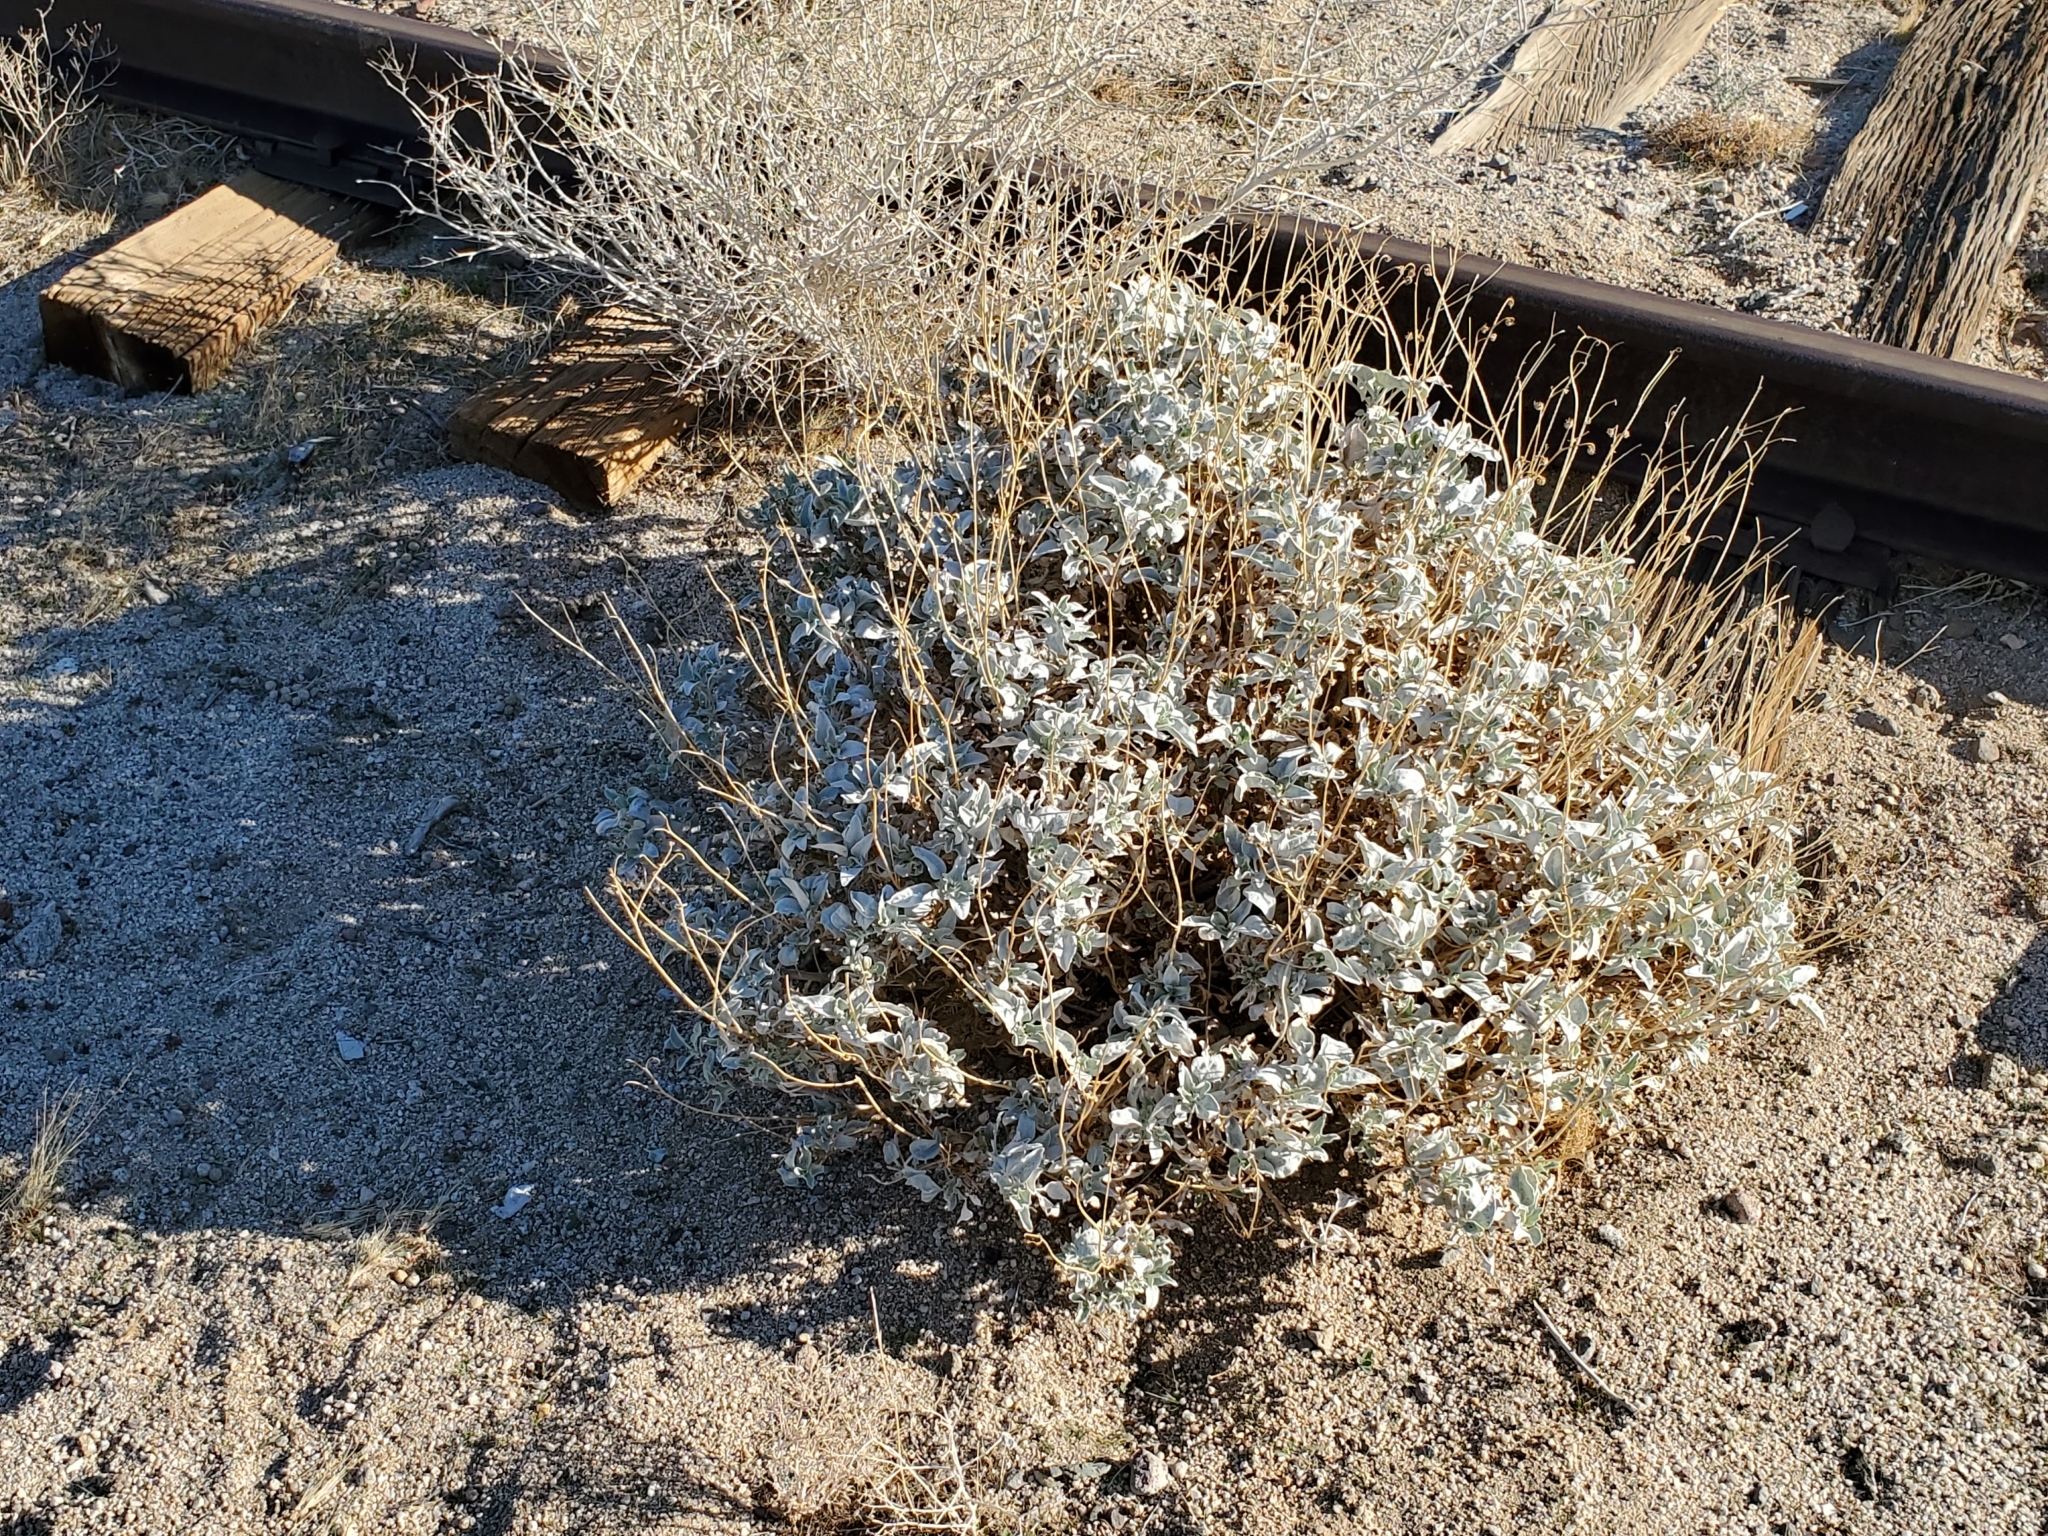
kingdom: Plantae
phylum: Tracheophyta
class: Magnoliopsida
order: Asterales
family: Asteraceae
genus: Encelia
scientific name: Encelia farinosa
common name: Brittlebush
